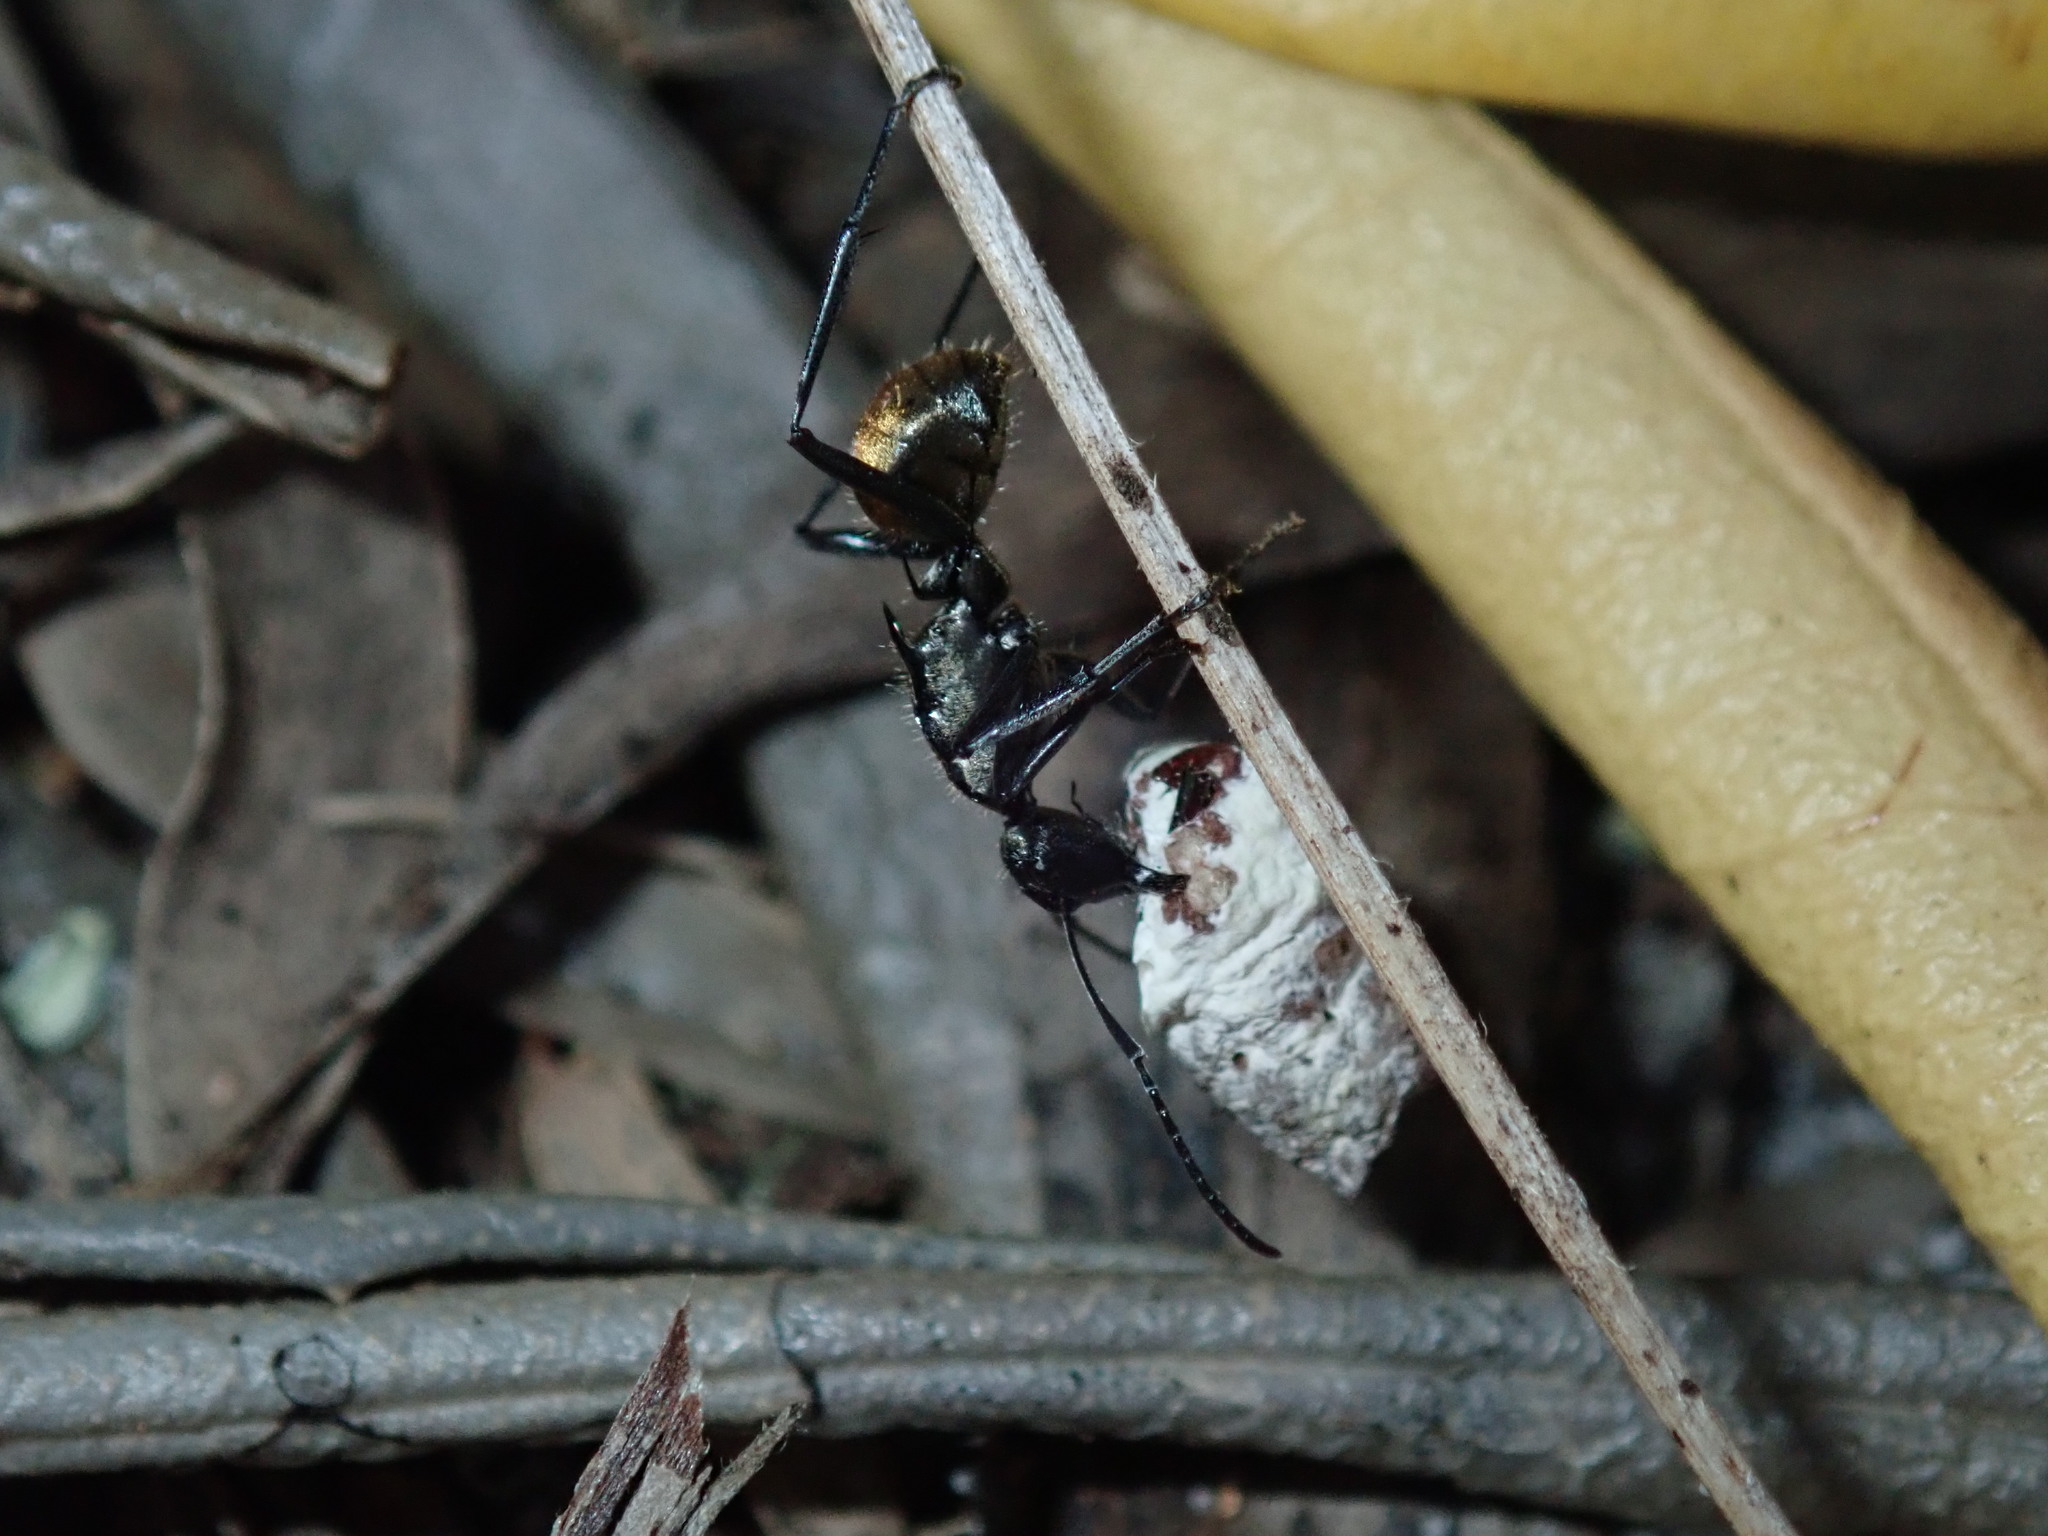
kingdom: Animalia
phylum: Arthropoda
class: Insecta
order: Hymenoptera
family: Formicidae
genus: Polyrhachis
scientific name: Polyrhachis ammon
